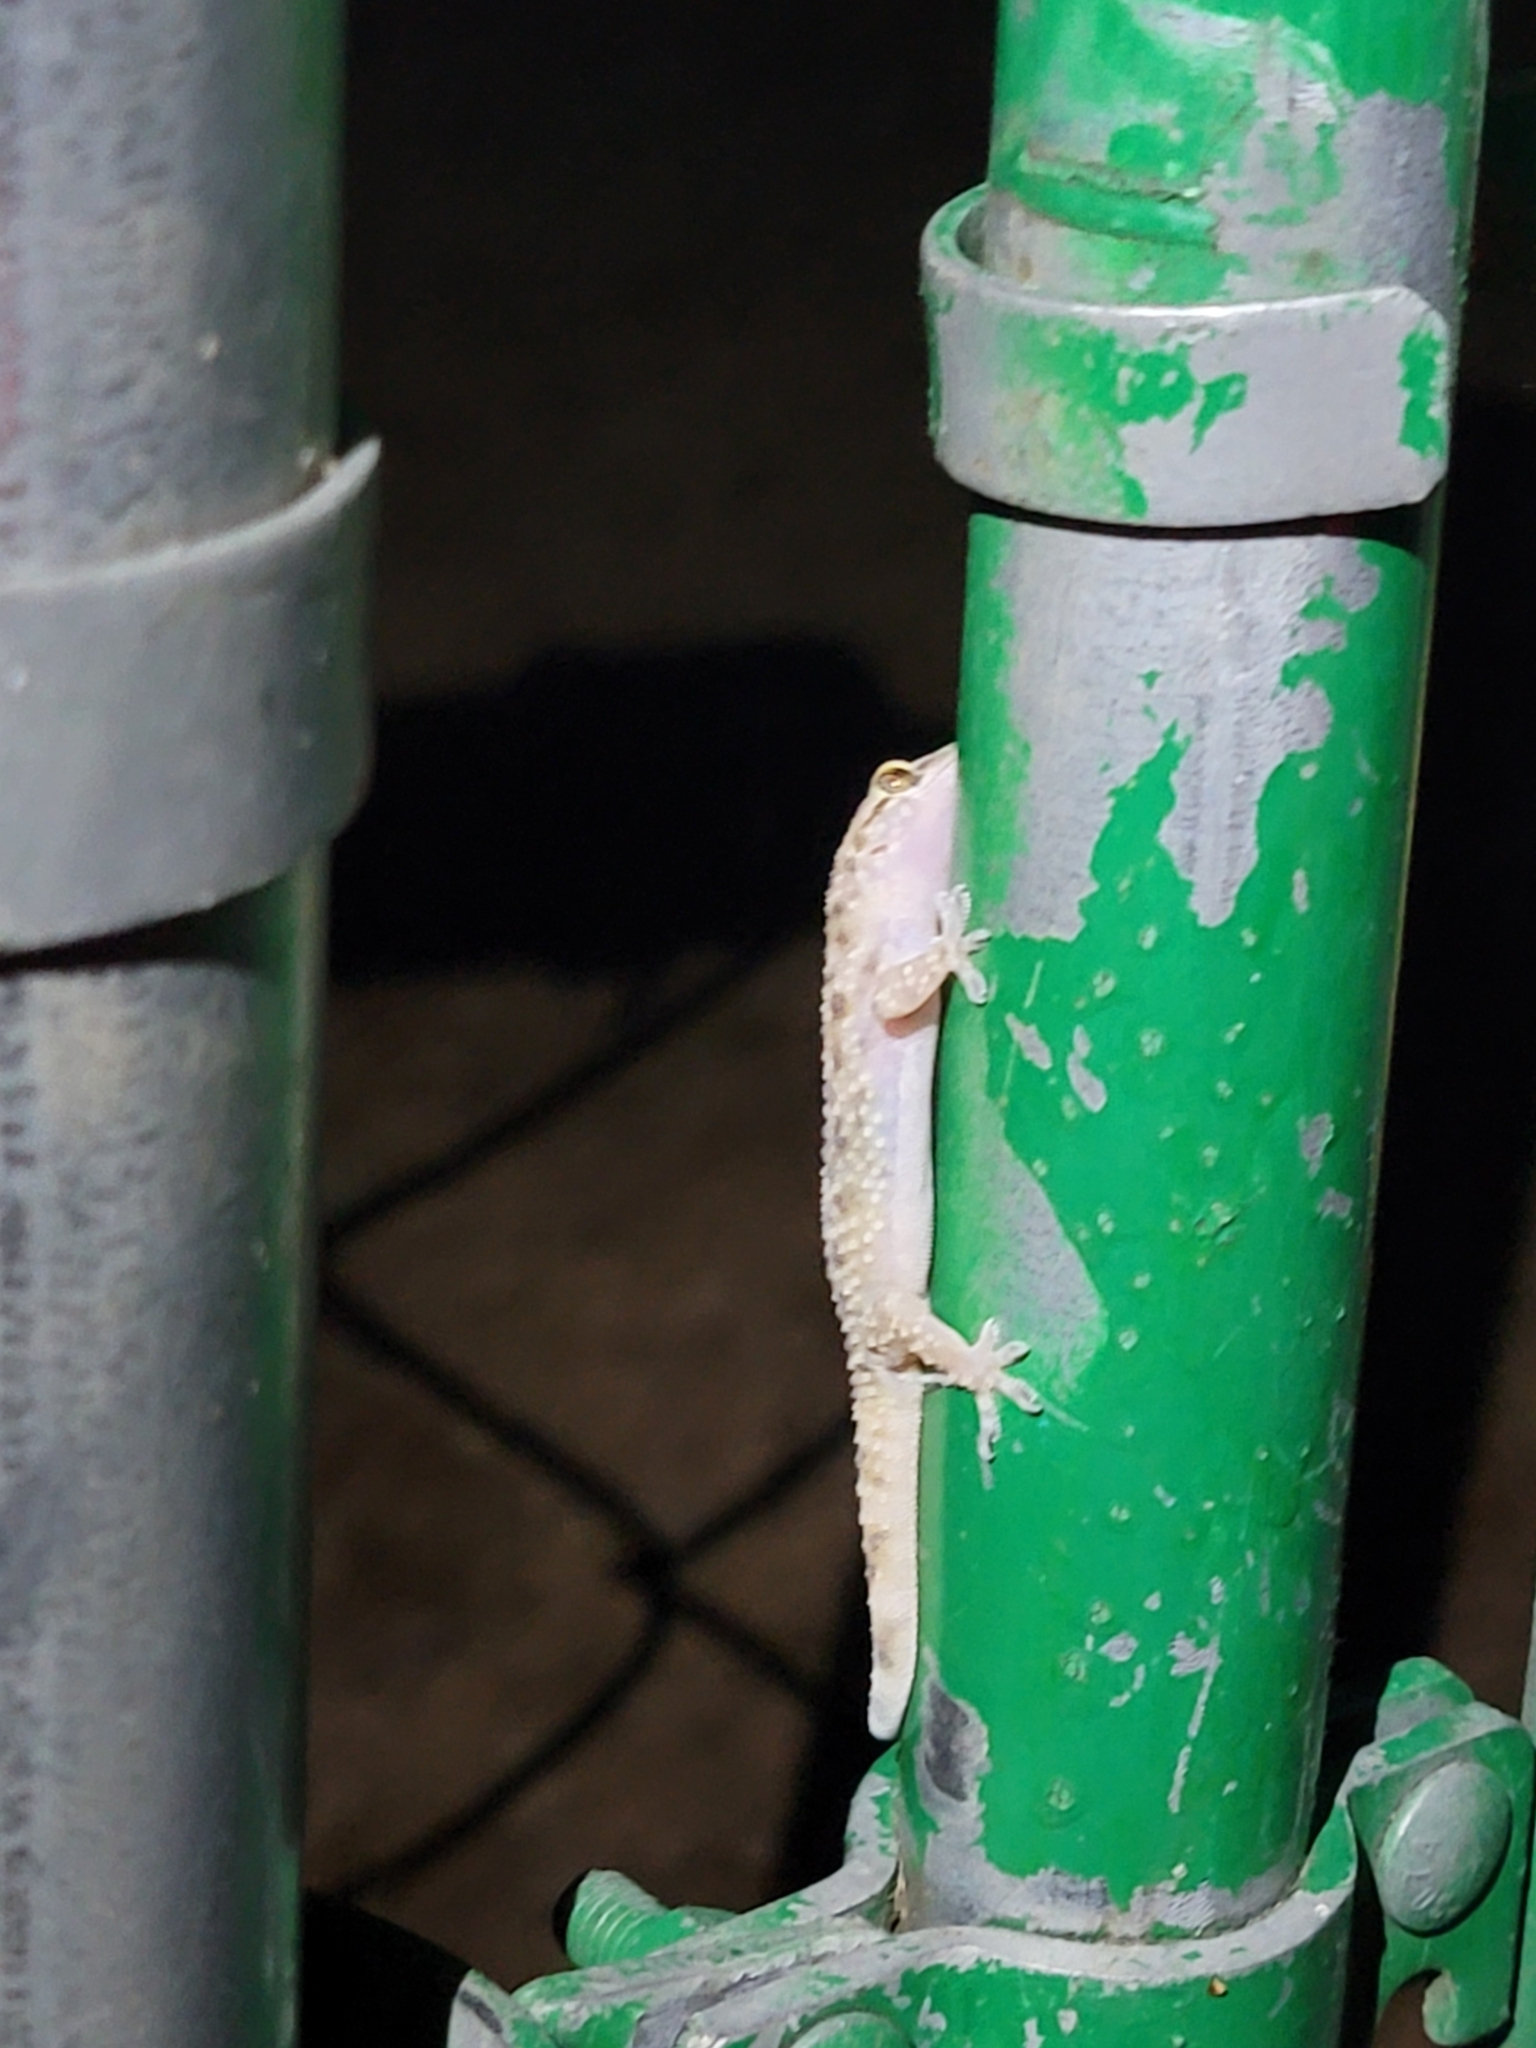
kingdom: Animalia
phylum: Chordata
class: Squamata
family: Gekkonidae
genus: Hemidactylus
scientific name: Hemidactylus turcicus
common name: Turkish gecko
